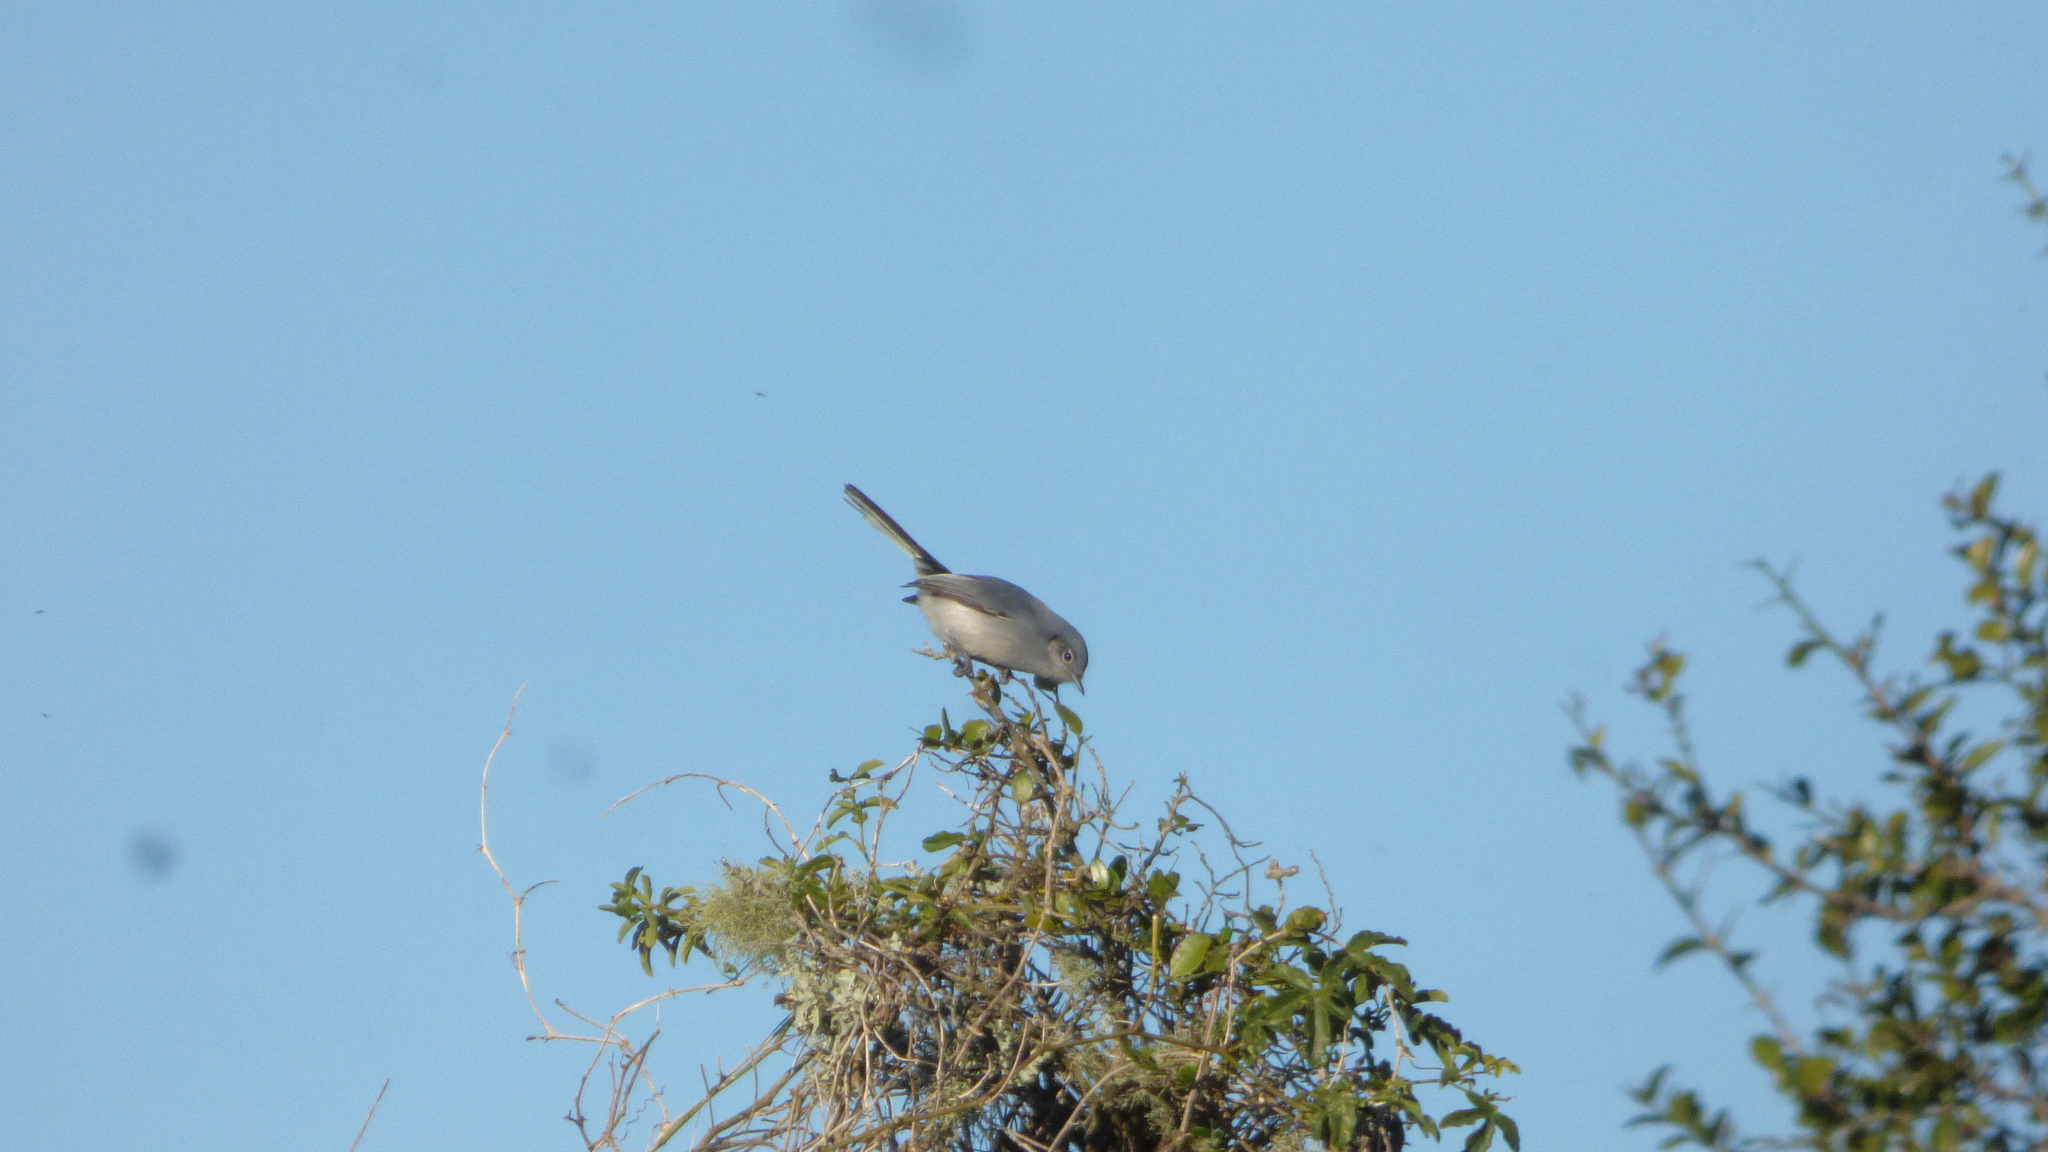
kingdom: Animalia
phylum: Chordata
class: Aves
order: Passeriformes
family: Polioptilidae
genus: Polioptila
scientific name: Polioptila dumicola
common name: Masked gnatcatcher
